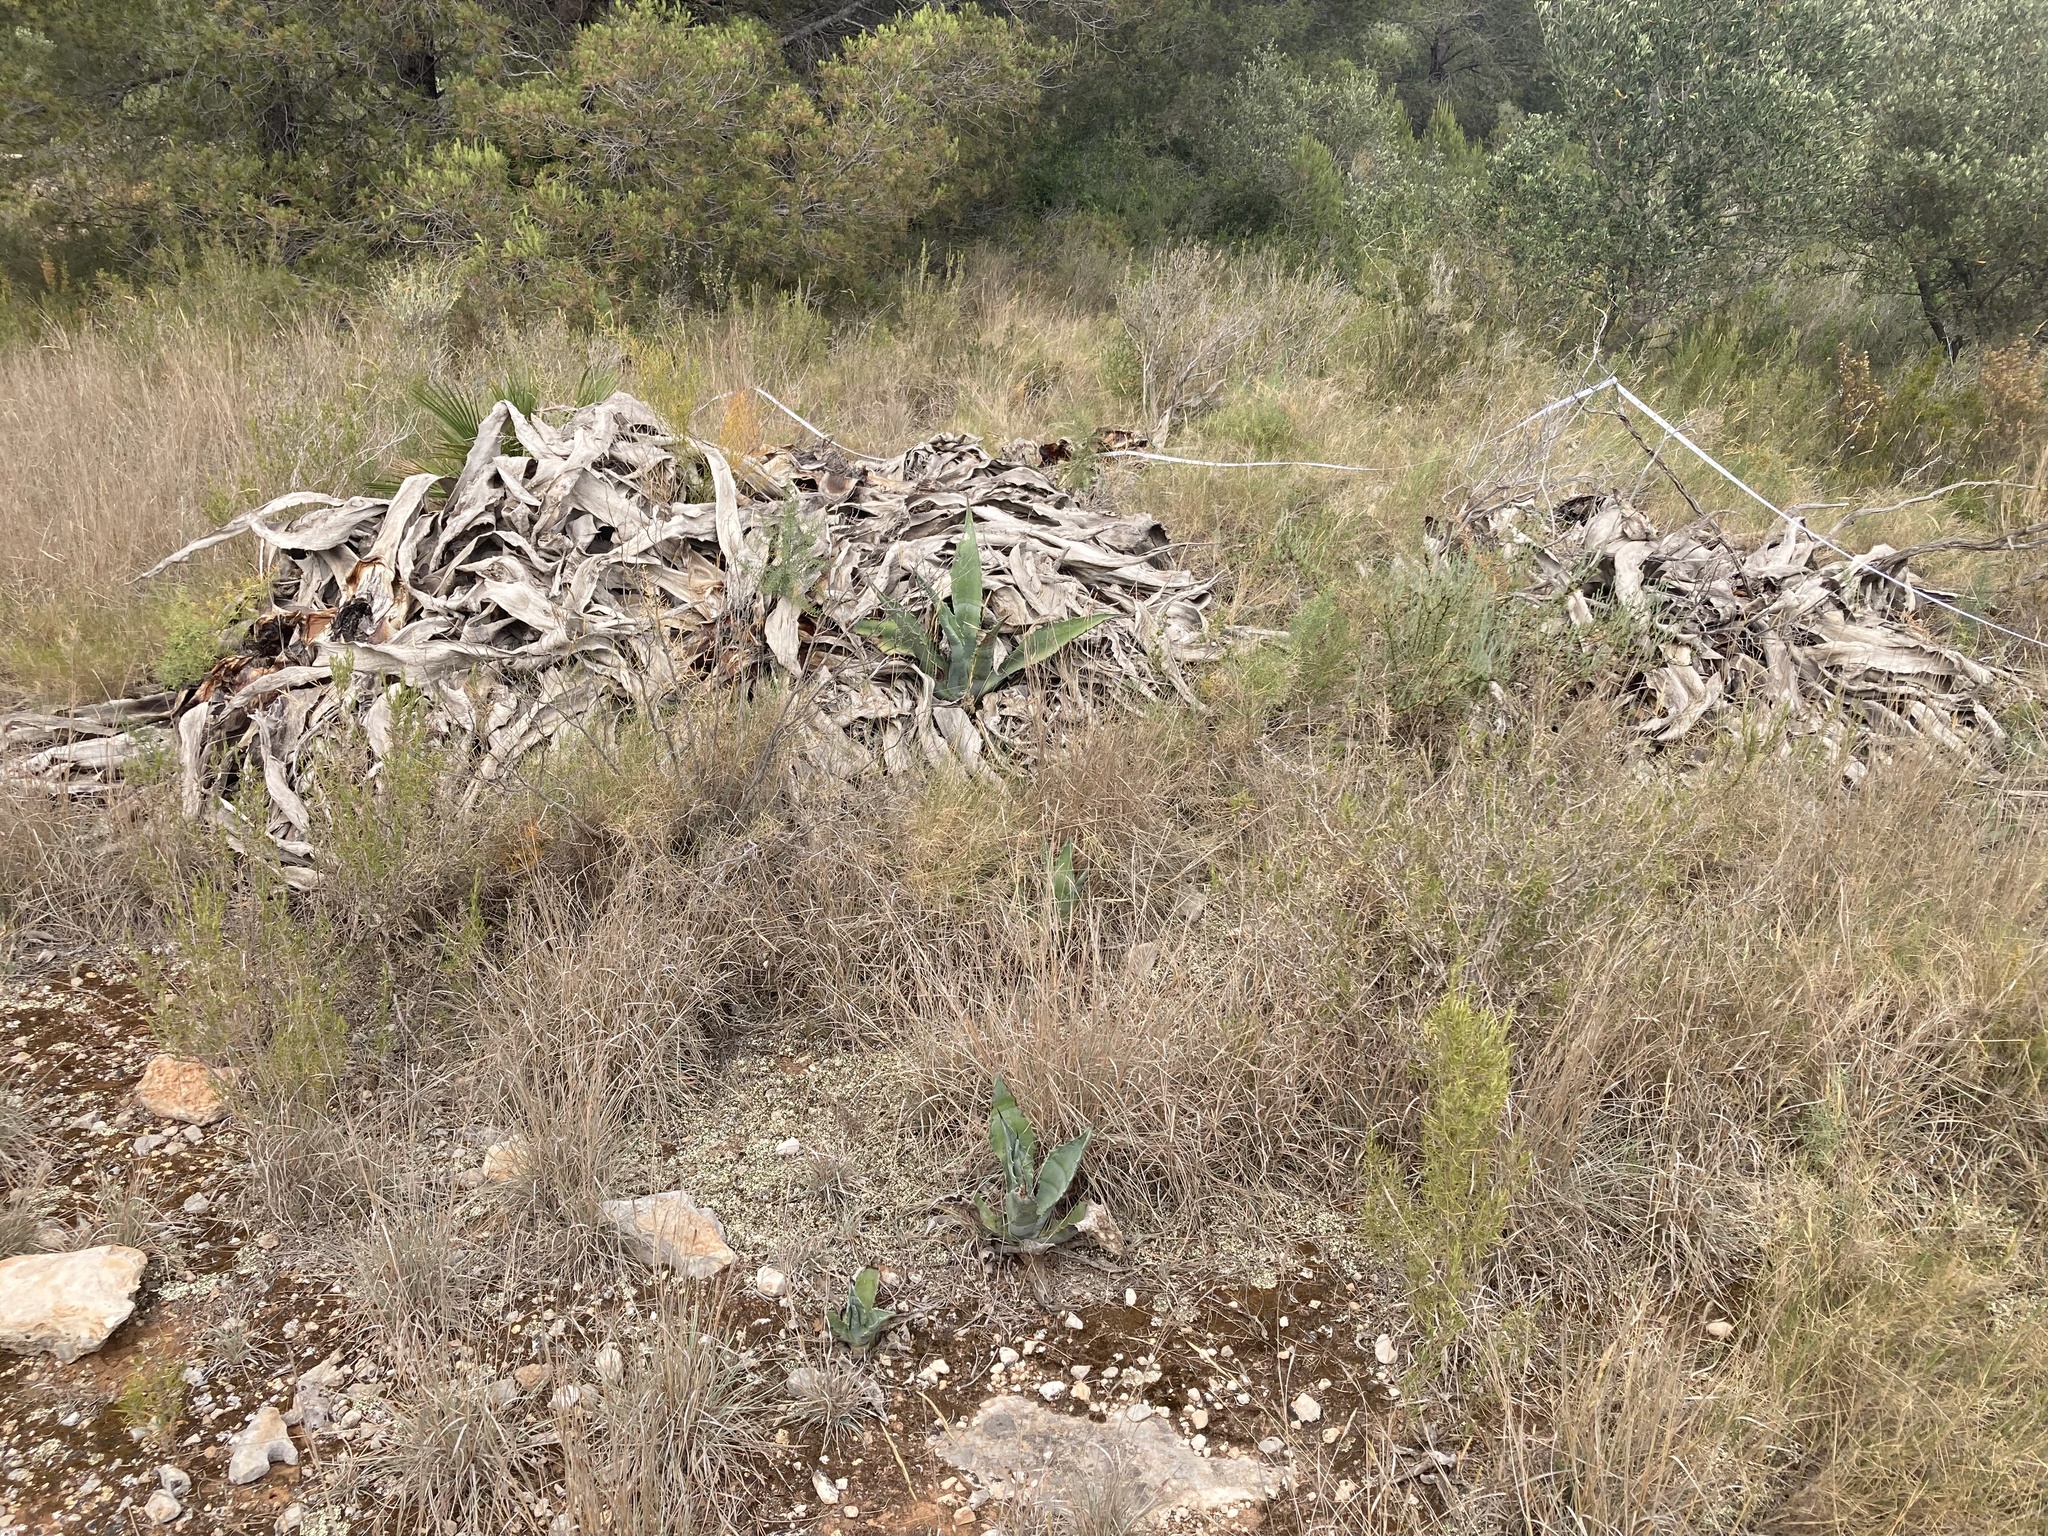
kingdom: Plantae
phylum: Tracheophyta
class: Liliopsida
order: Asparagales
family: Asparagaceae
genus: Agave
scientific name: Agave americana
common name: Centuryplant
